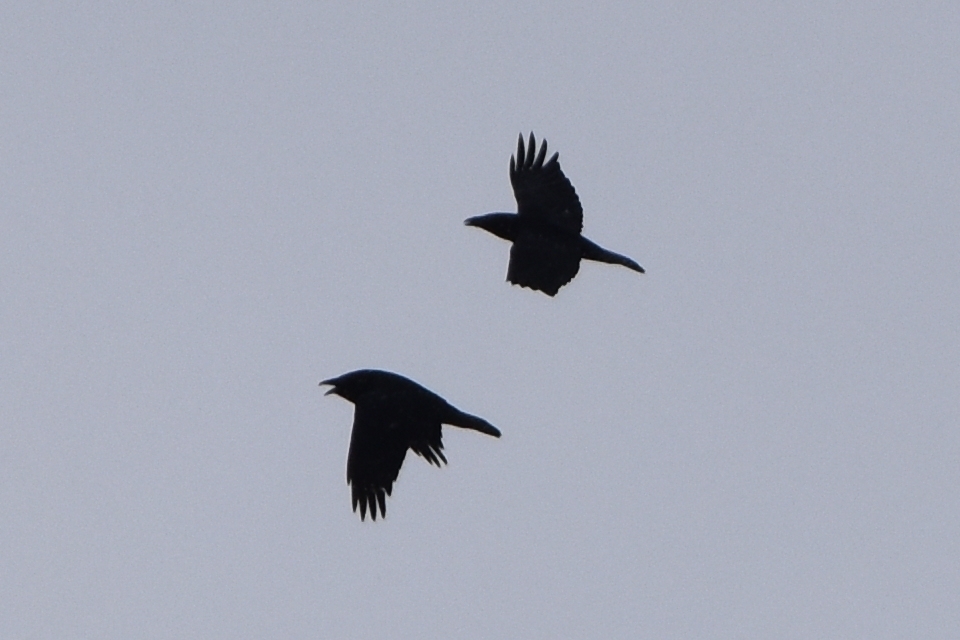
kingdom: Animalia
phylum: Chordata
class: Aves
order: Passeriformes
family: Corvidae
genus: Corvus
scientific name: Corvus corax
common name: Common raven
